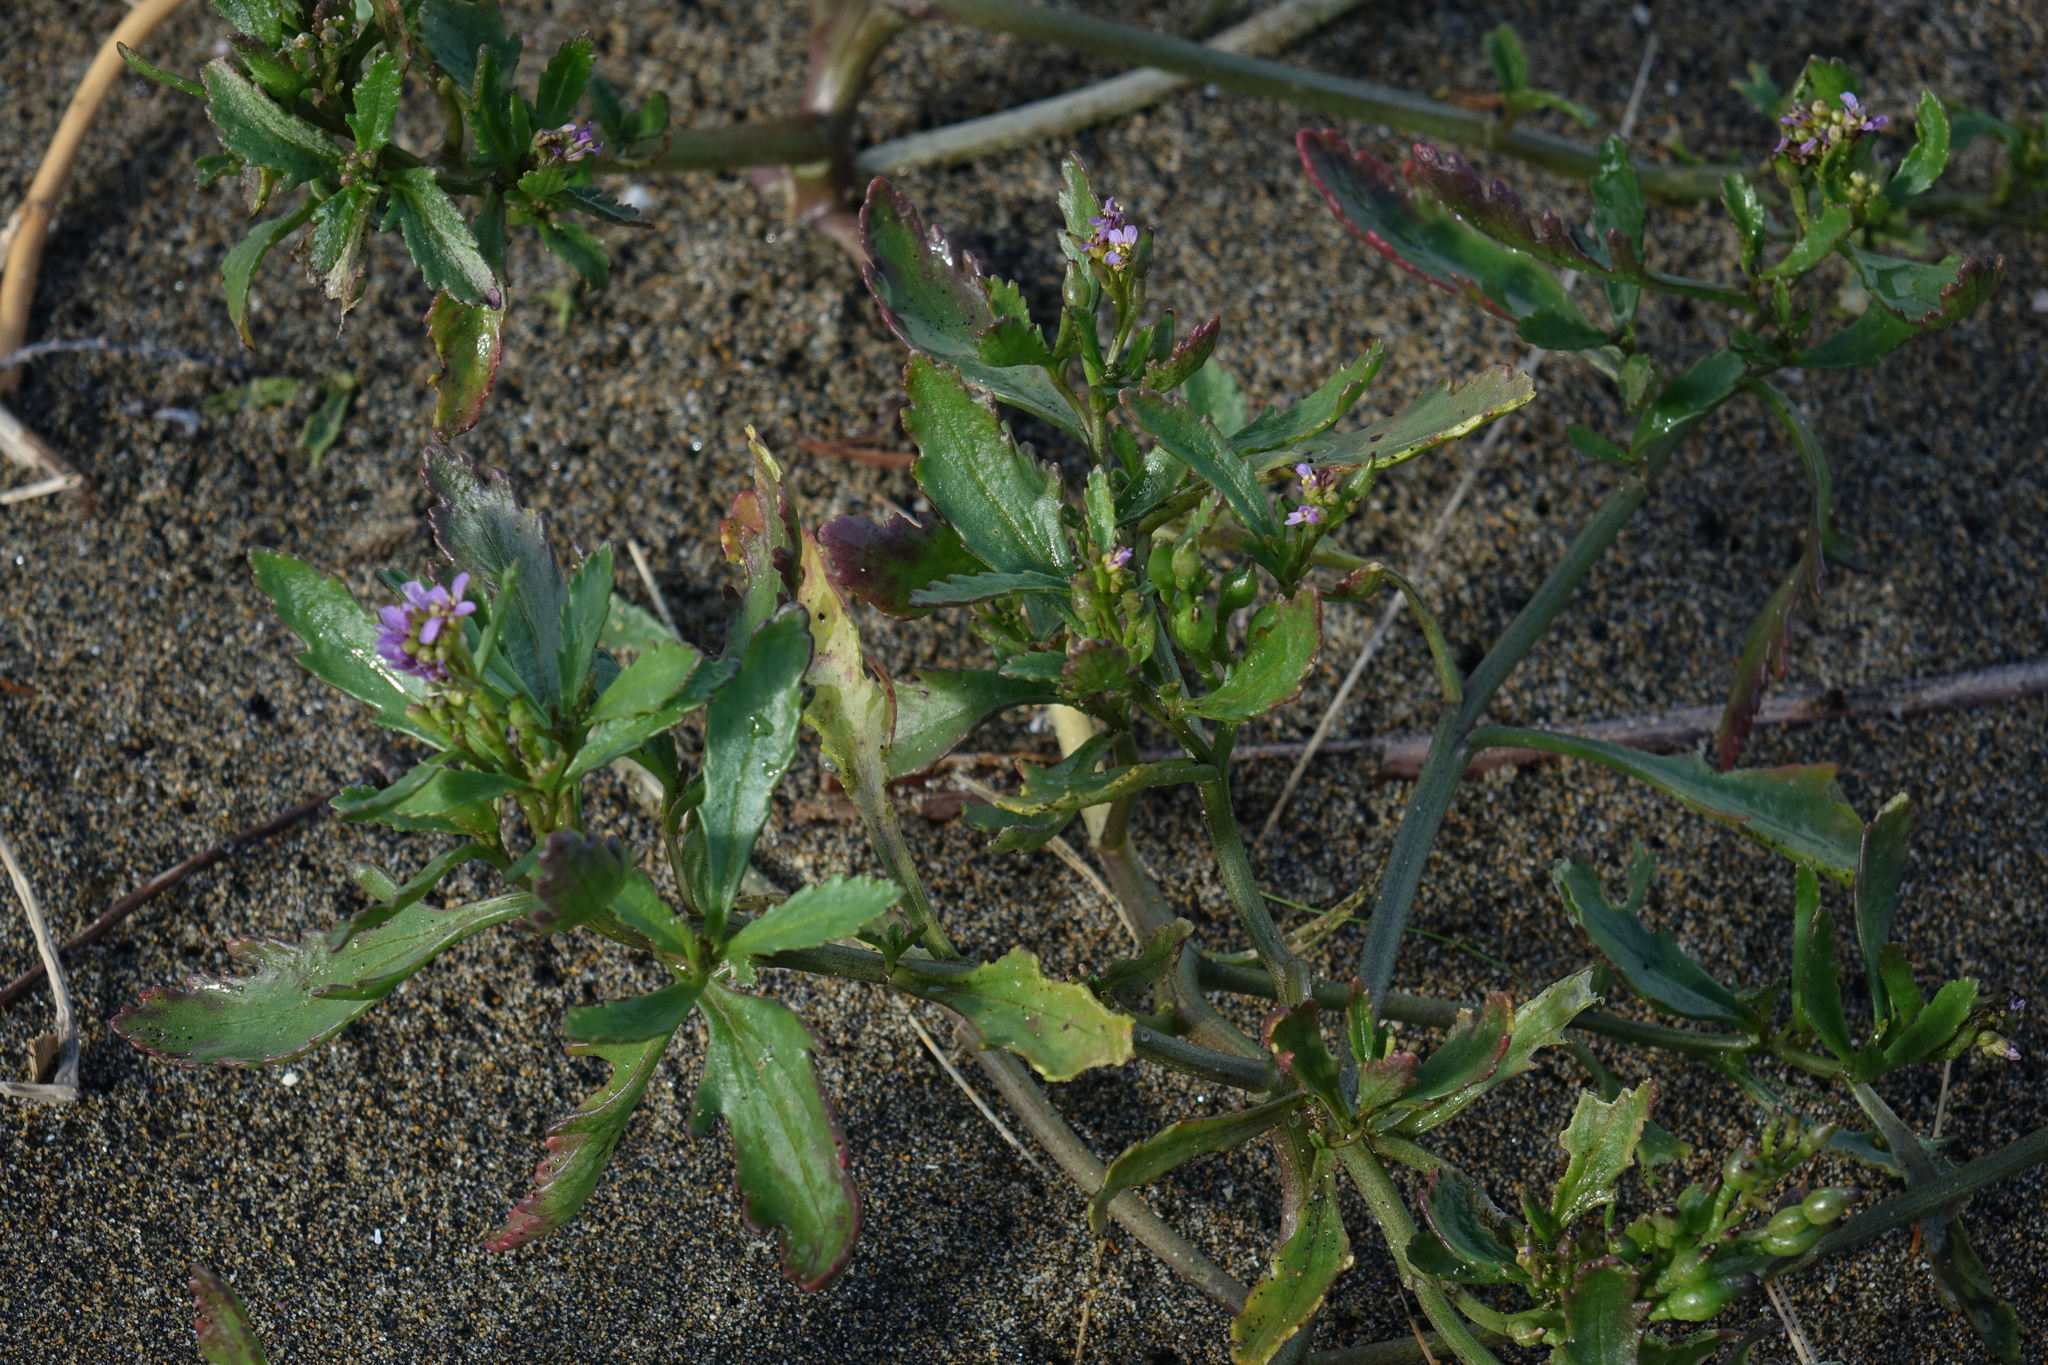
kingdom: Plantae
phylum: Tracheophyta
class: Magnoliopsida
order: Brassicales
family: Brassicaceae
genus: Cakile
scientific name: Cakile edentula
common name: American sea rocket
